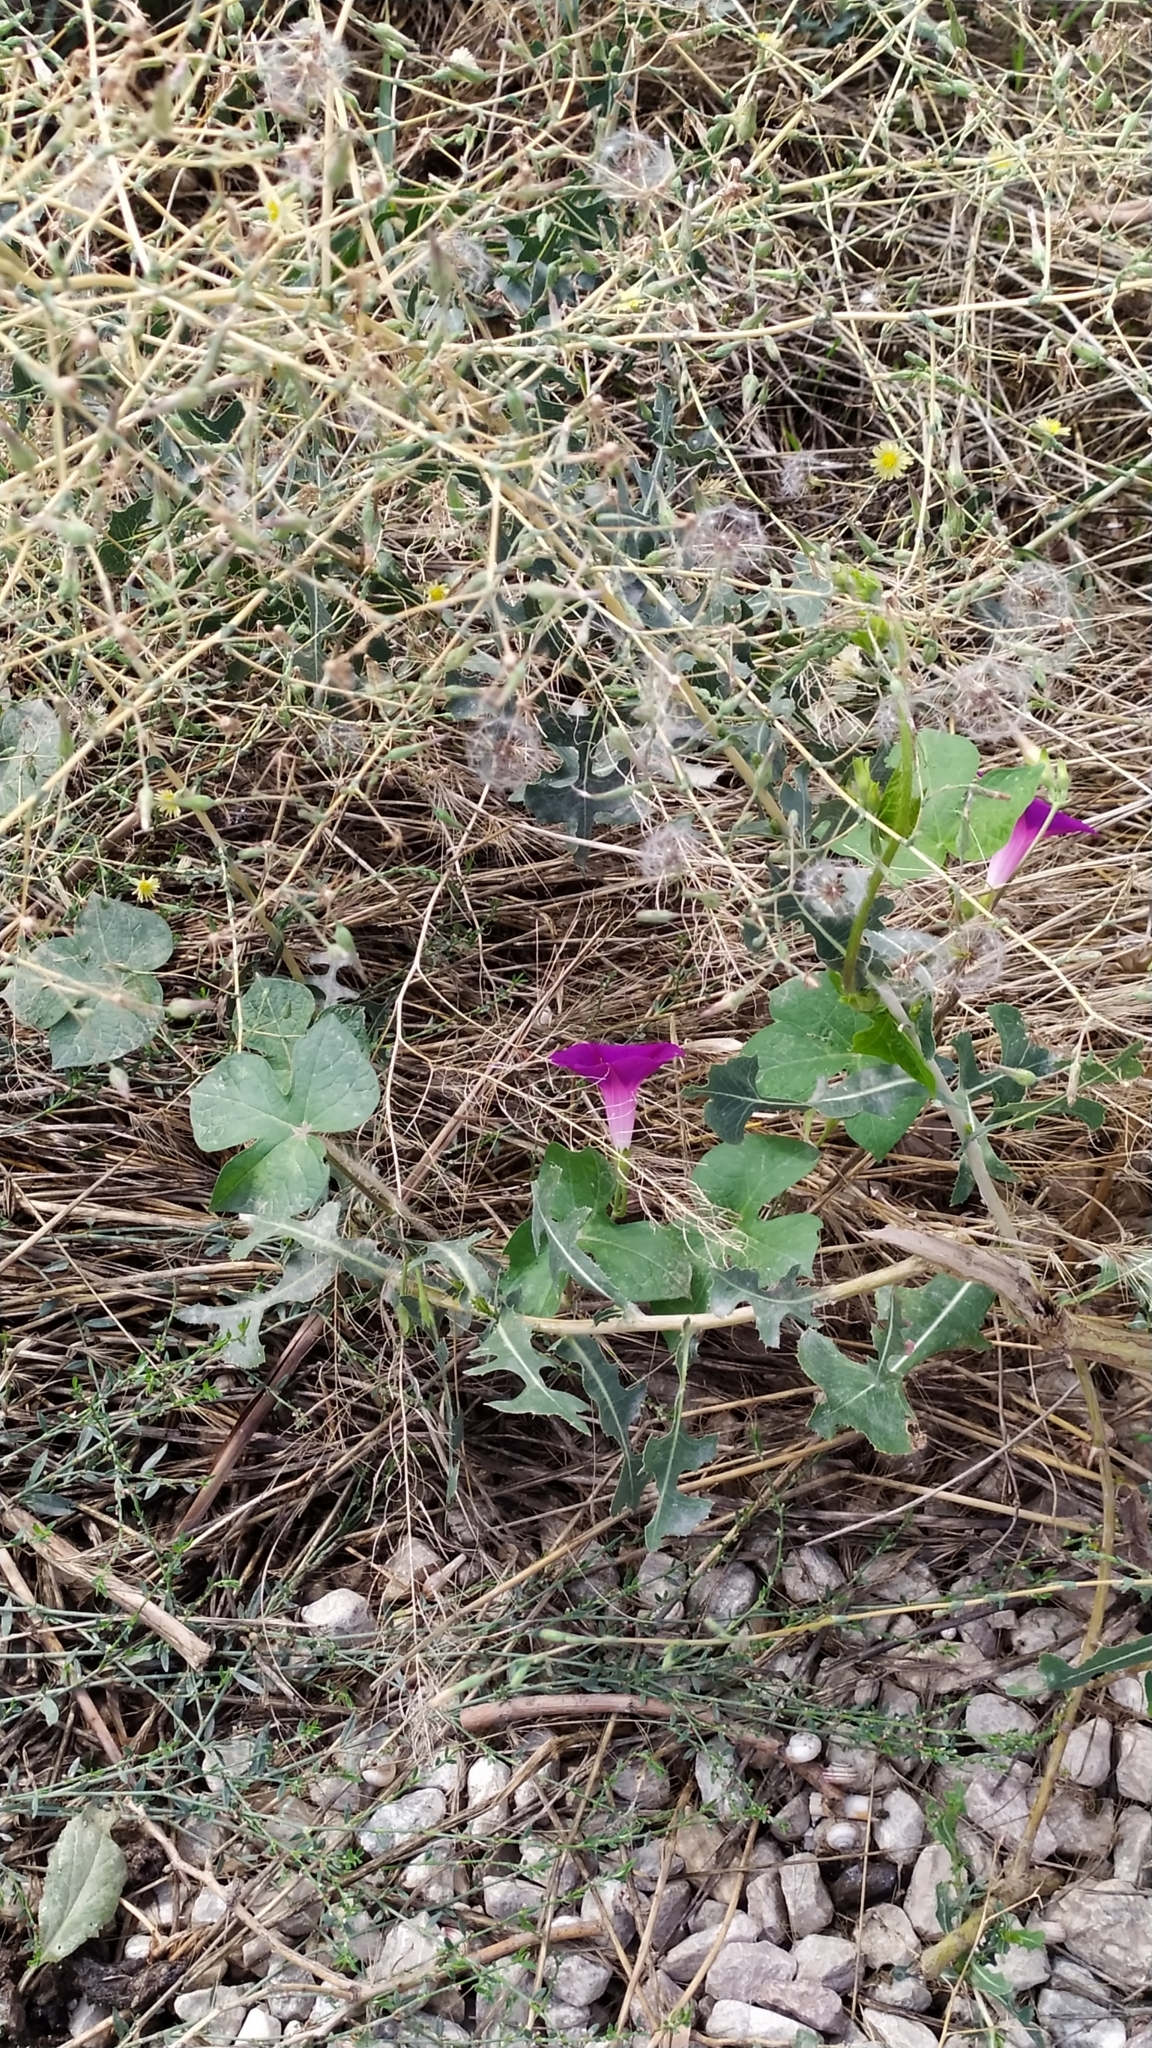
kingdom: Plantae
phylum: Tracheophyta
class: Magnoliopsida
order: Solanales
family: Convolvulaceae
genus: Ipomoea
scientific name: Ipomoea purpurea
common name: Common morning-glory
